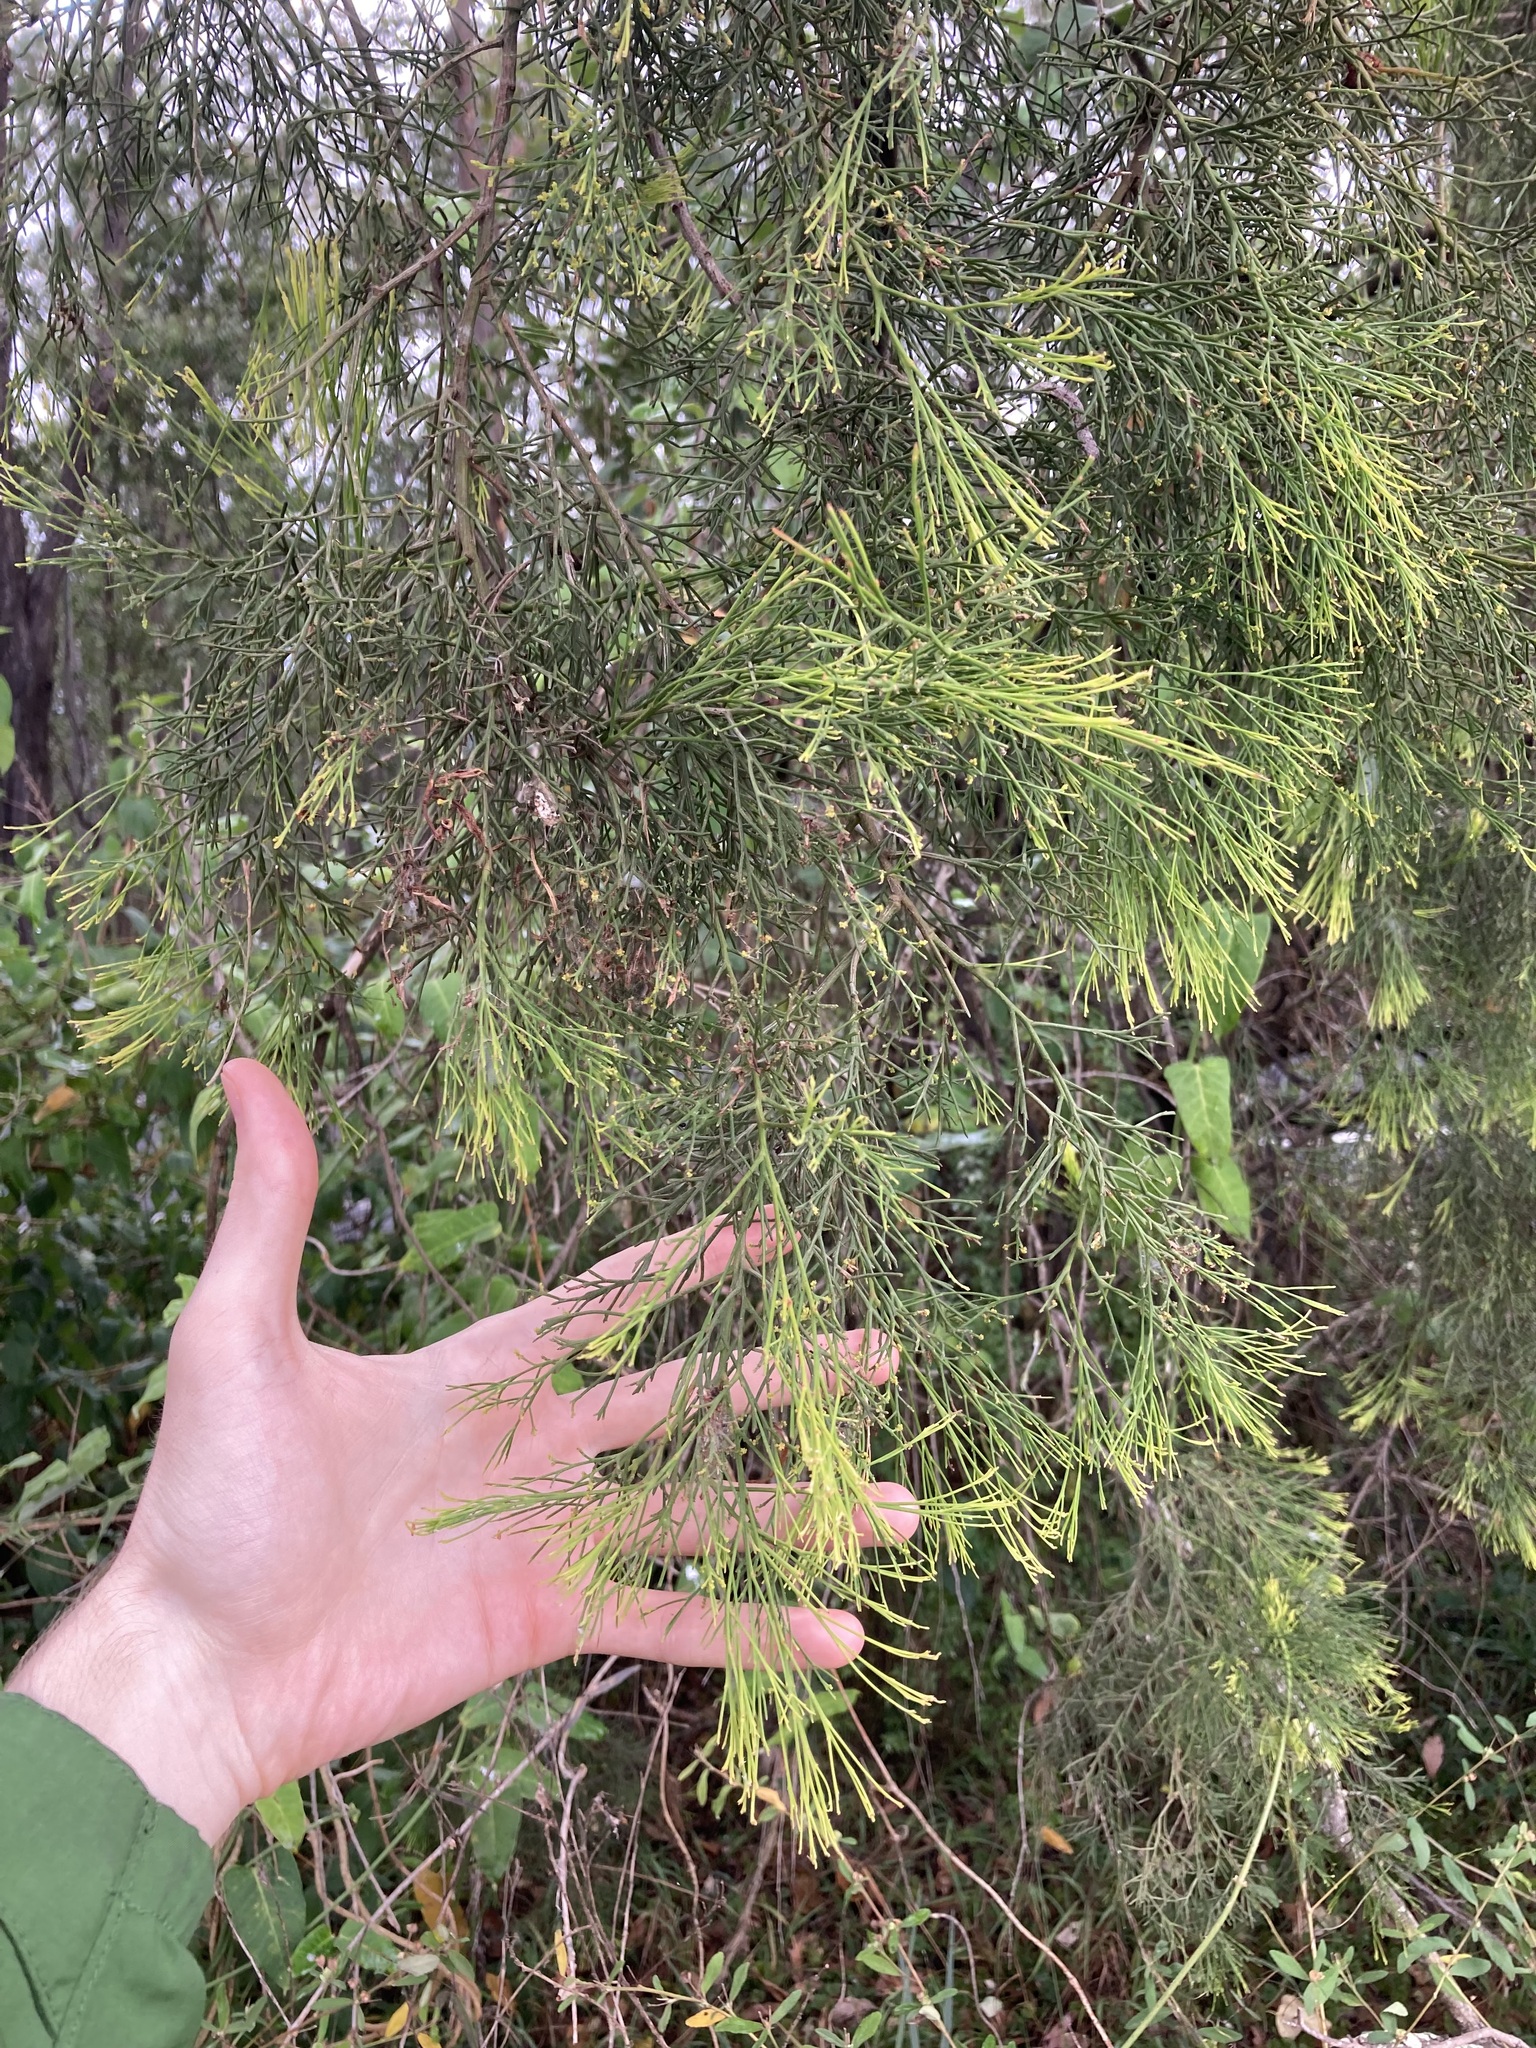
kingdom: Plantae
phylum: Tracheophyta
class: Magnoliopsida
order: Santalales
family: Santalaceae
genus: Exocarpos
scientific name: Exocarpos cupressiformis
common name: Cherry ballart
